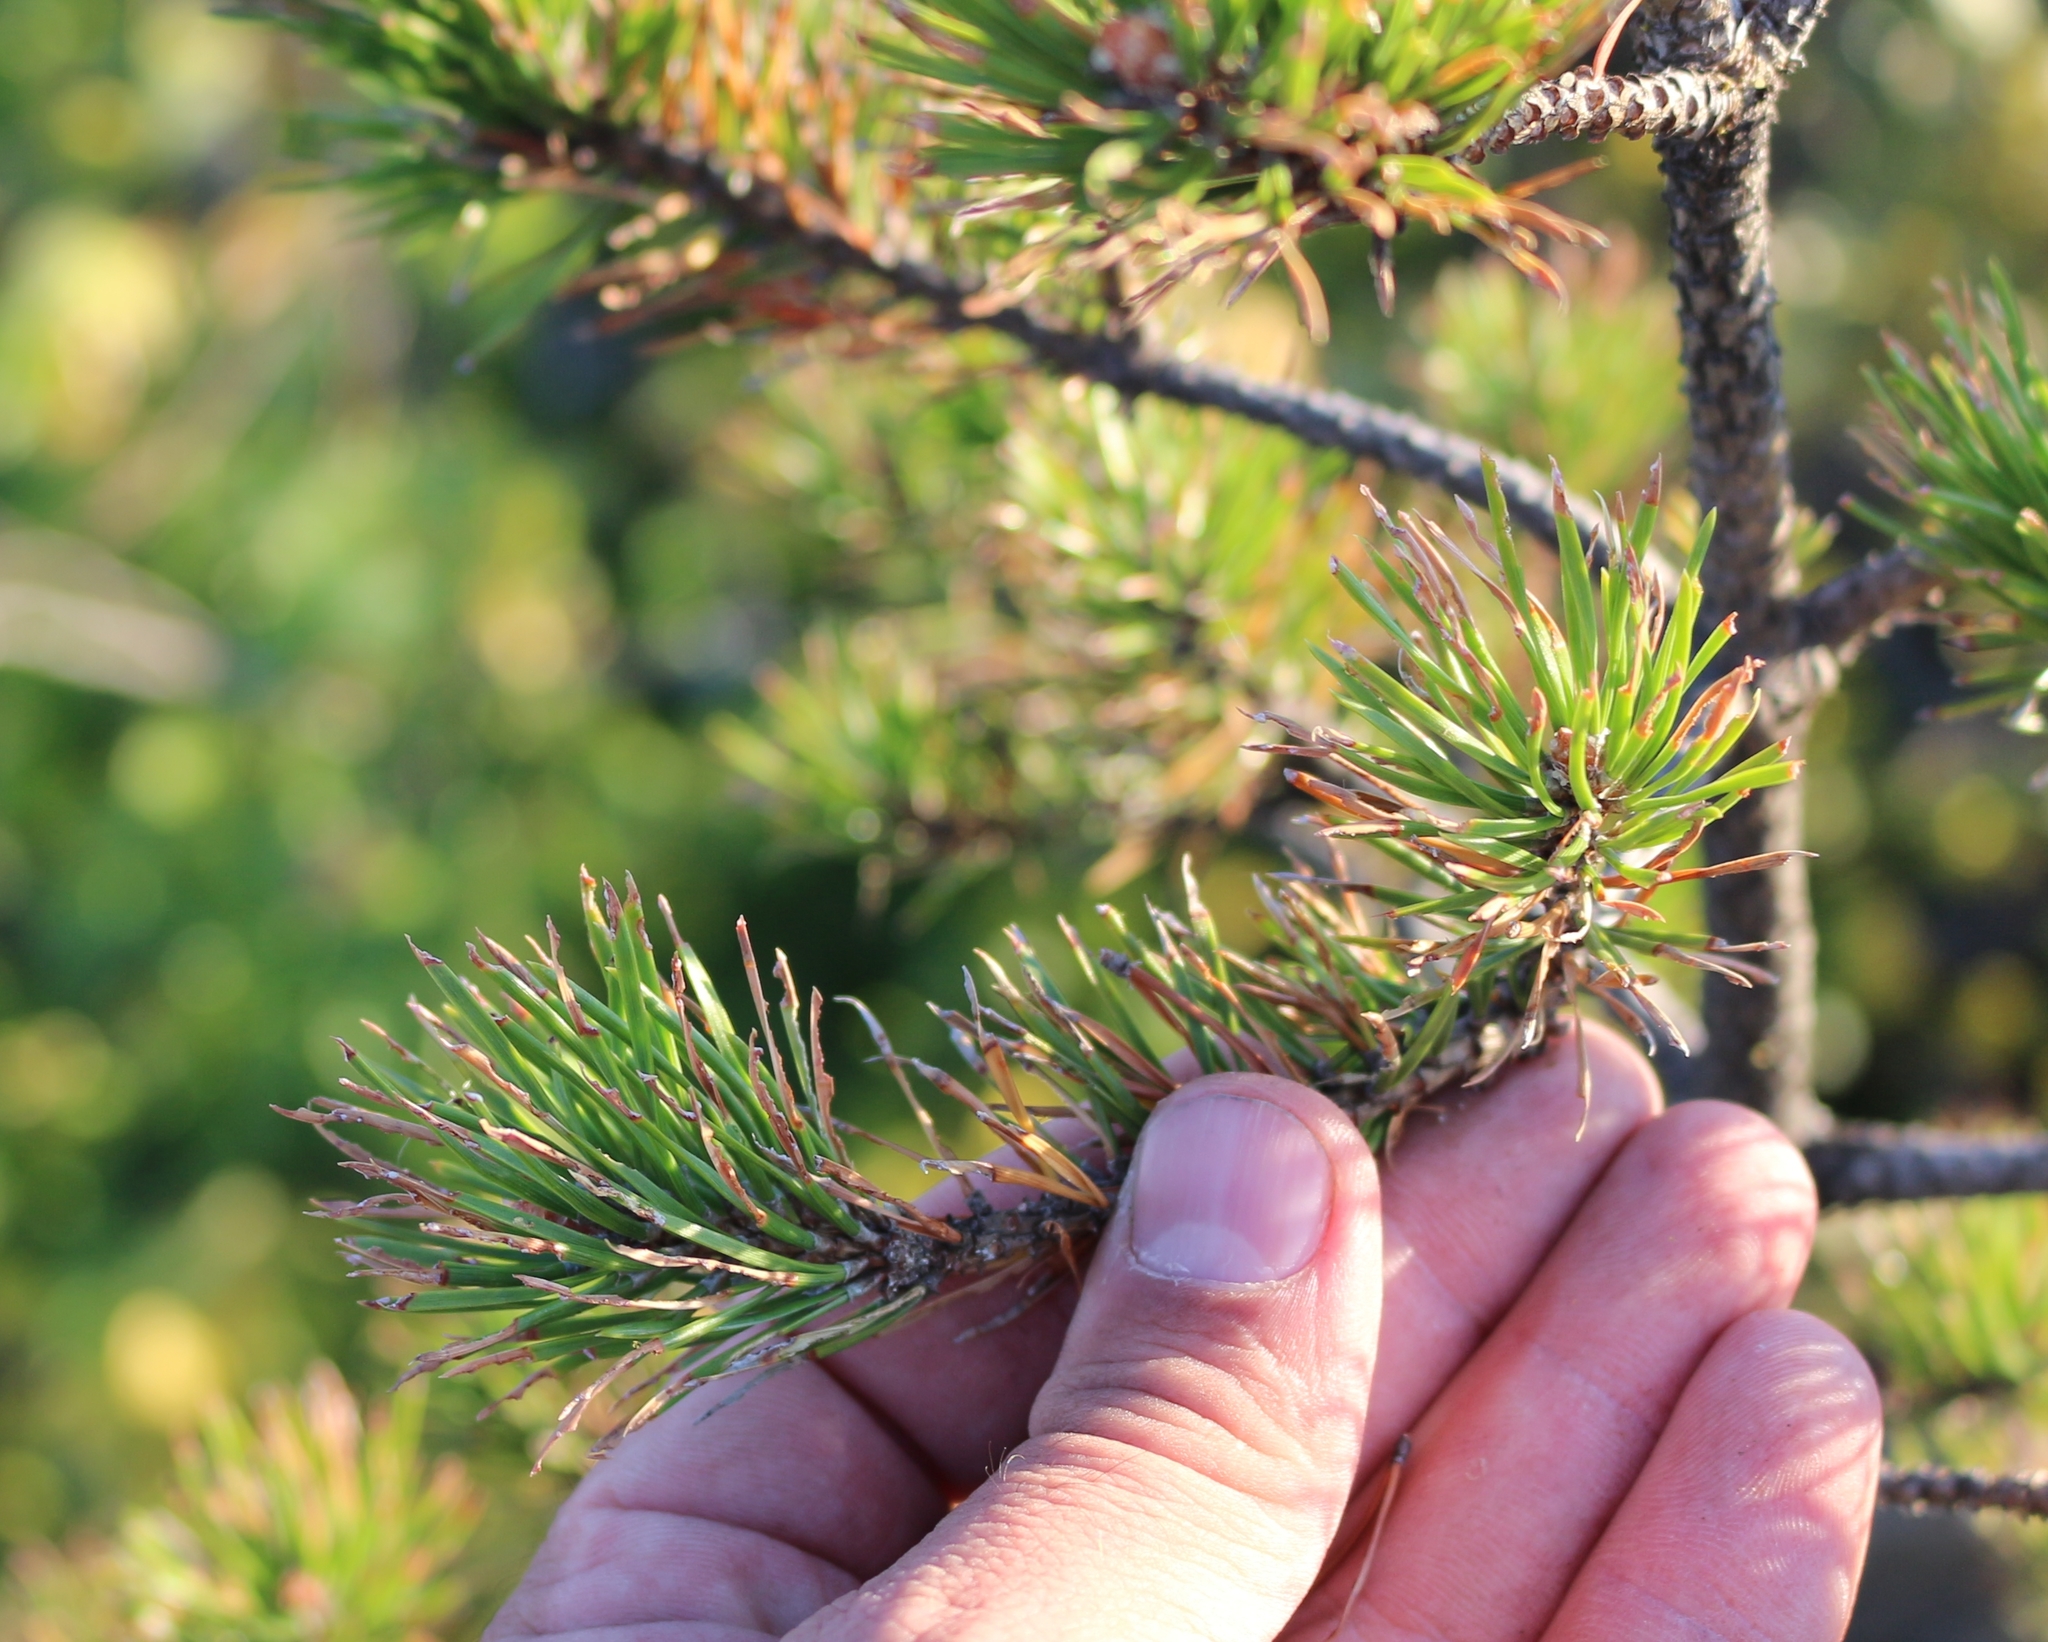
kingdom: Plantae
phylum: Tracheophyta
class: Pinopsida
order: Pinales
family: Pinaceae
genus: Pinus
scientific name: Pinus sylvestris
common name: Scots pine
